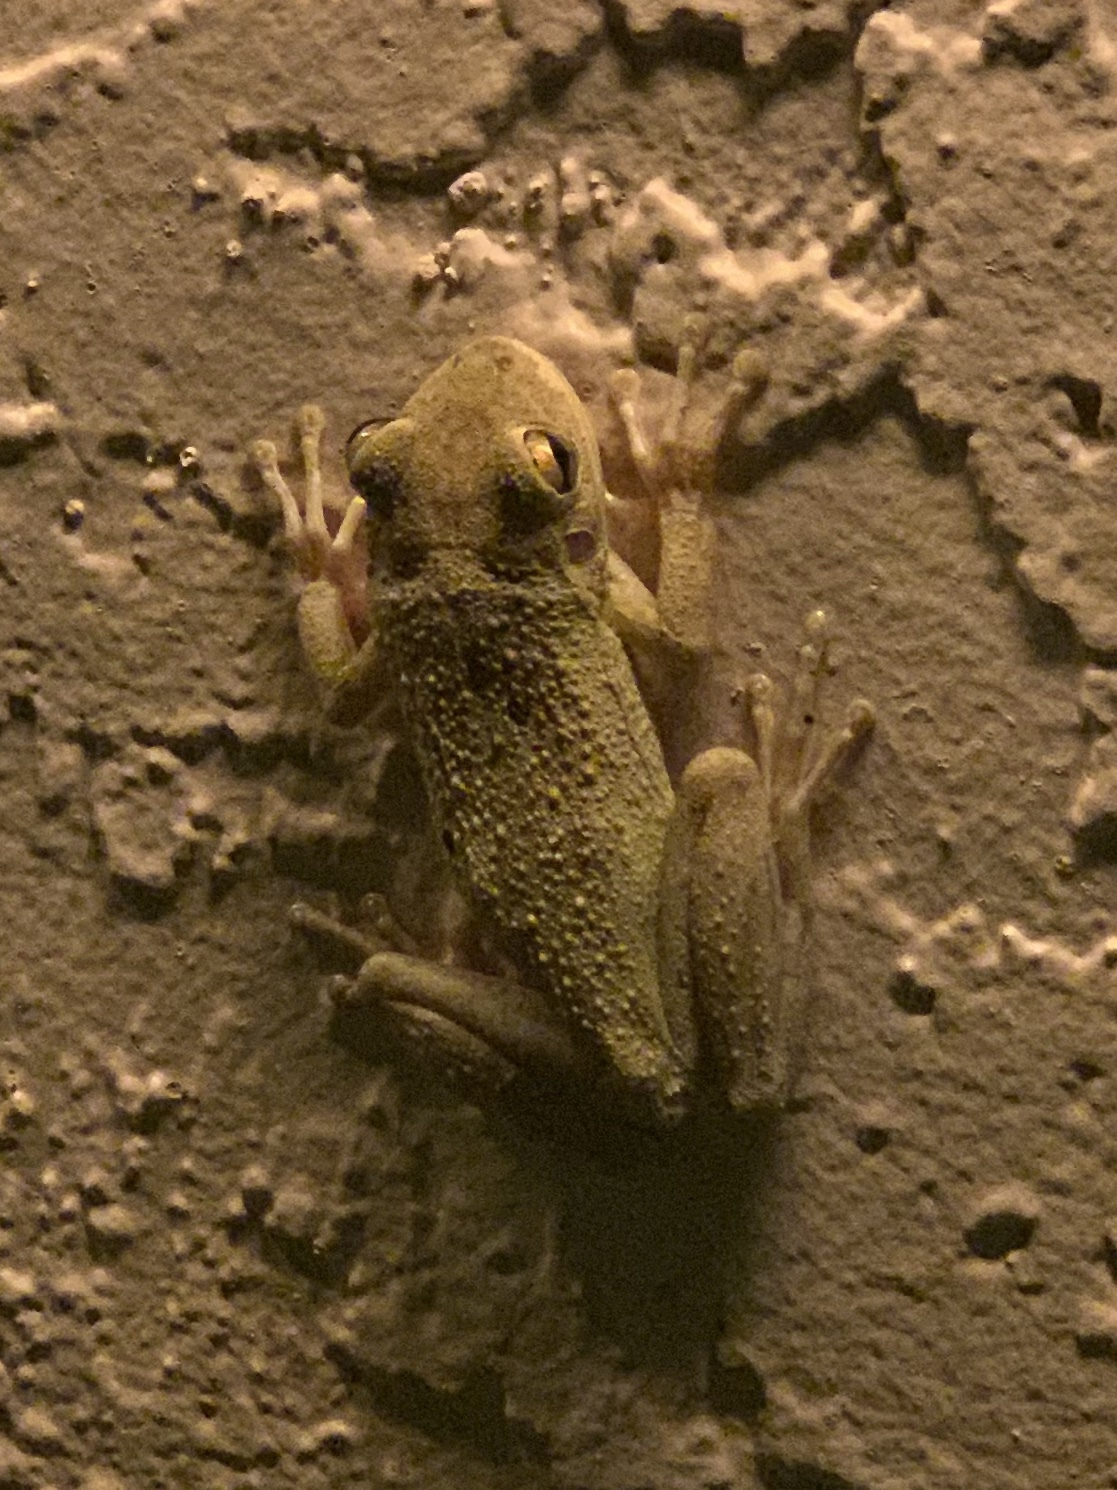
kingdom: Animalia
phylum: Chordata
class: Amphibia
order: Anura
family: Hylidae
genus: Osteopilus
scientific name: Osteopilus septentrionalis
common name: Cuban treefrog
